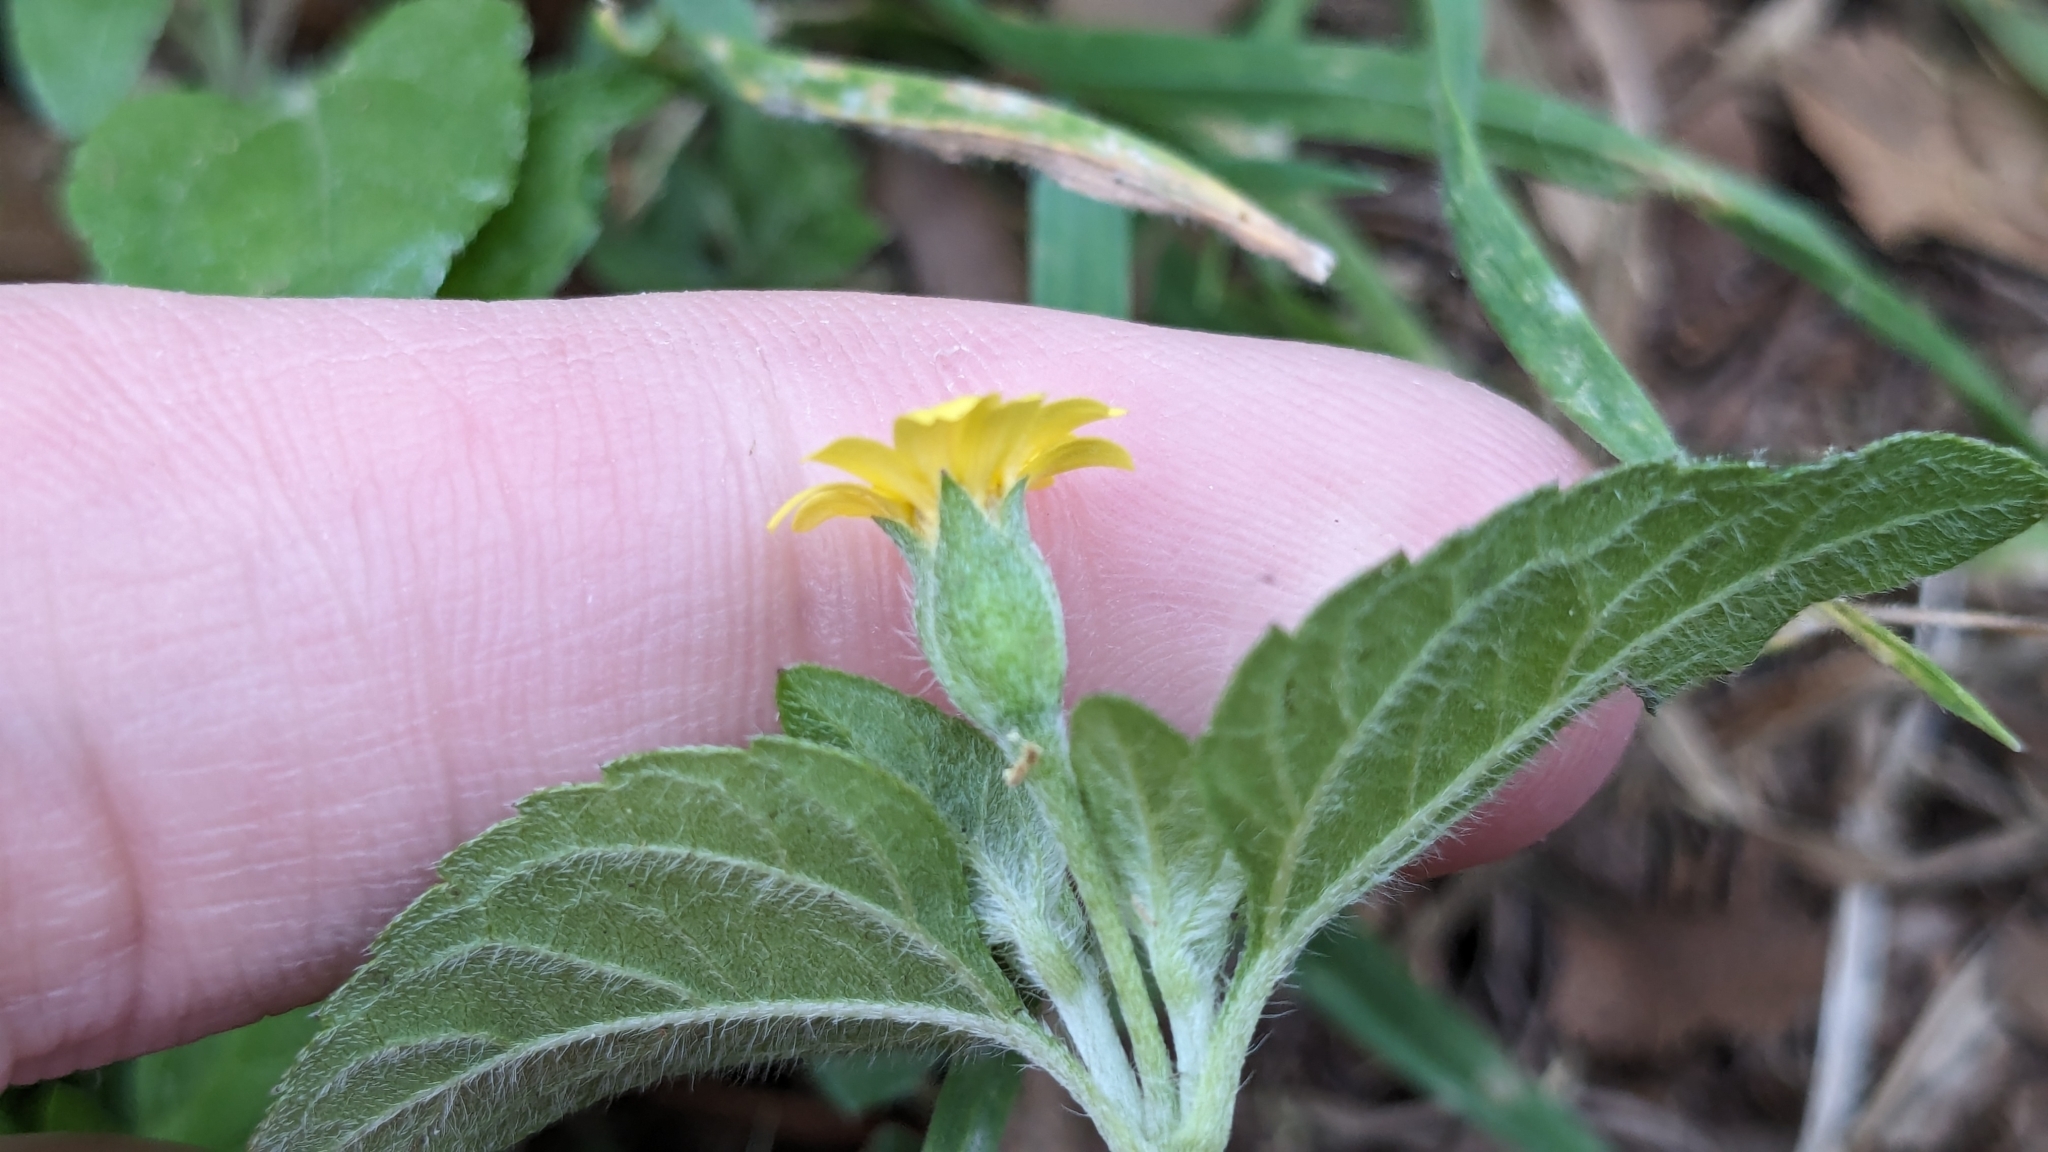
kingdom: Plantae
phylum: Tracheophyta
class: Magnoliopsida
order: Asterales
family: Asteraceae
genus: Calyptocarpus
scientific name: Calyptocarpus vialis
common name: Straggler daisy
